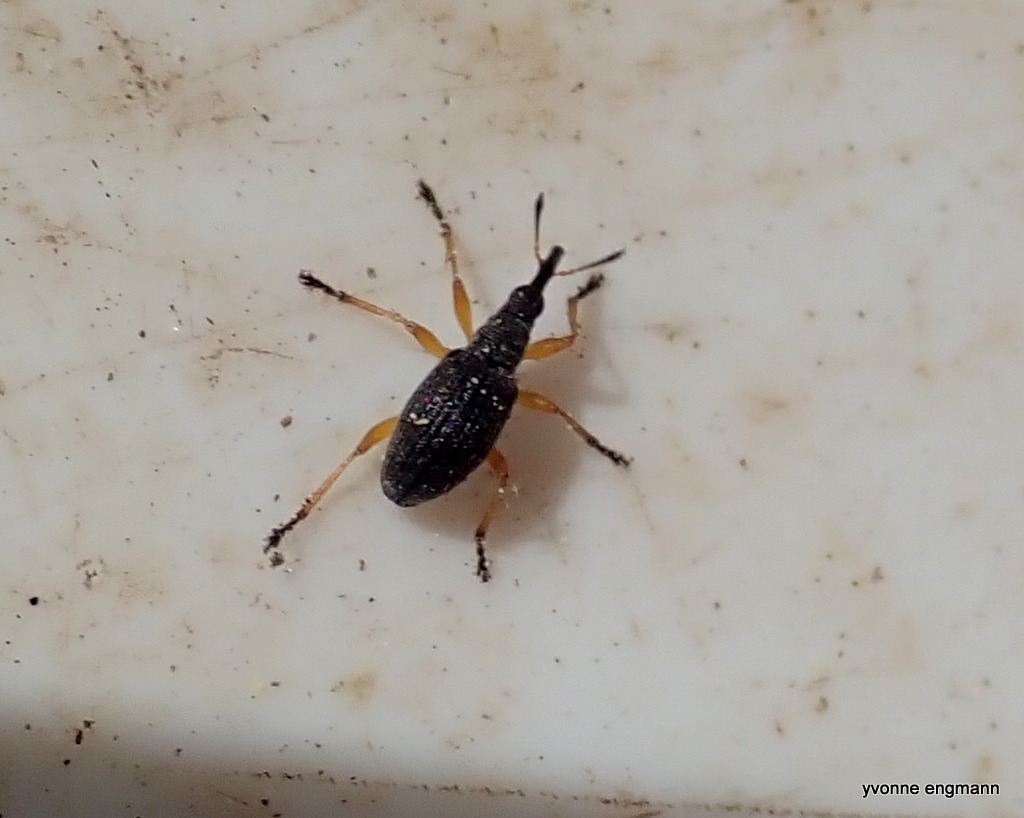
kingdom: Animalia
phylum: Arthropoda
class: Insecta
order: Coleoptera
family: Apionidae
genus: Protapion
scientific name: Protapion fulvipes
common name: White clover seed weevil
